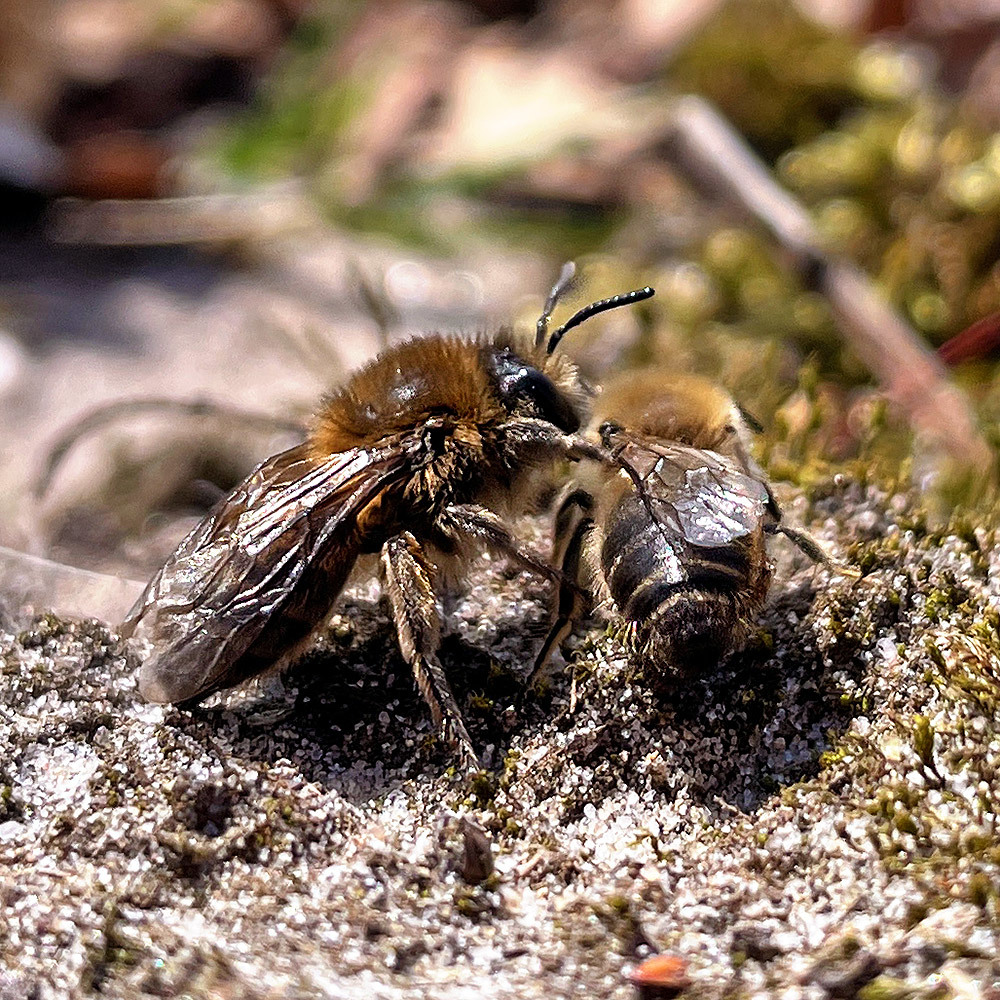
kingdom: Animalia
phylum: Arthropoda
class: Insecta
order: Hymenoptera
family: Colletidae
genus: Colletes
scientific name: Colletes cunicularius
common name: Early colletes
